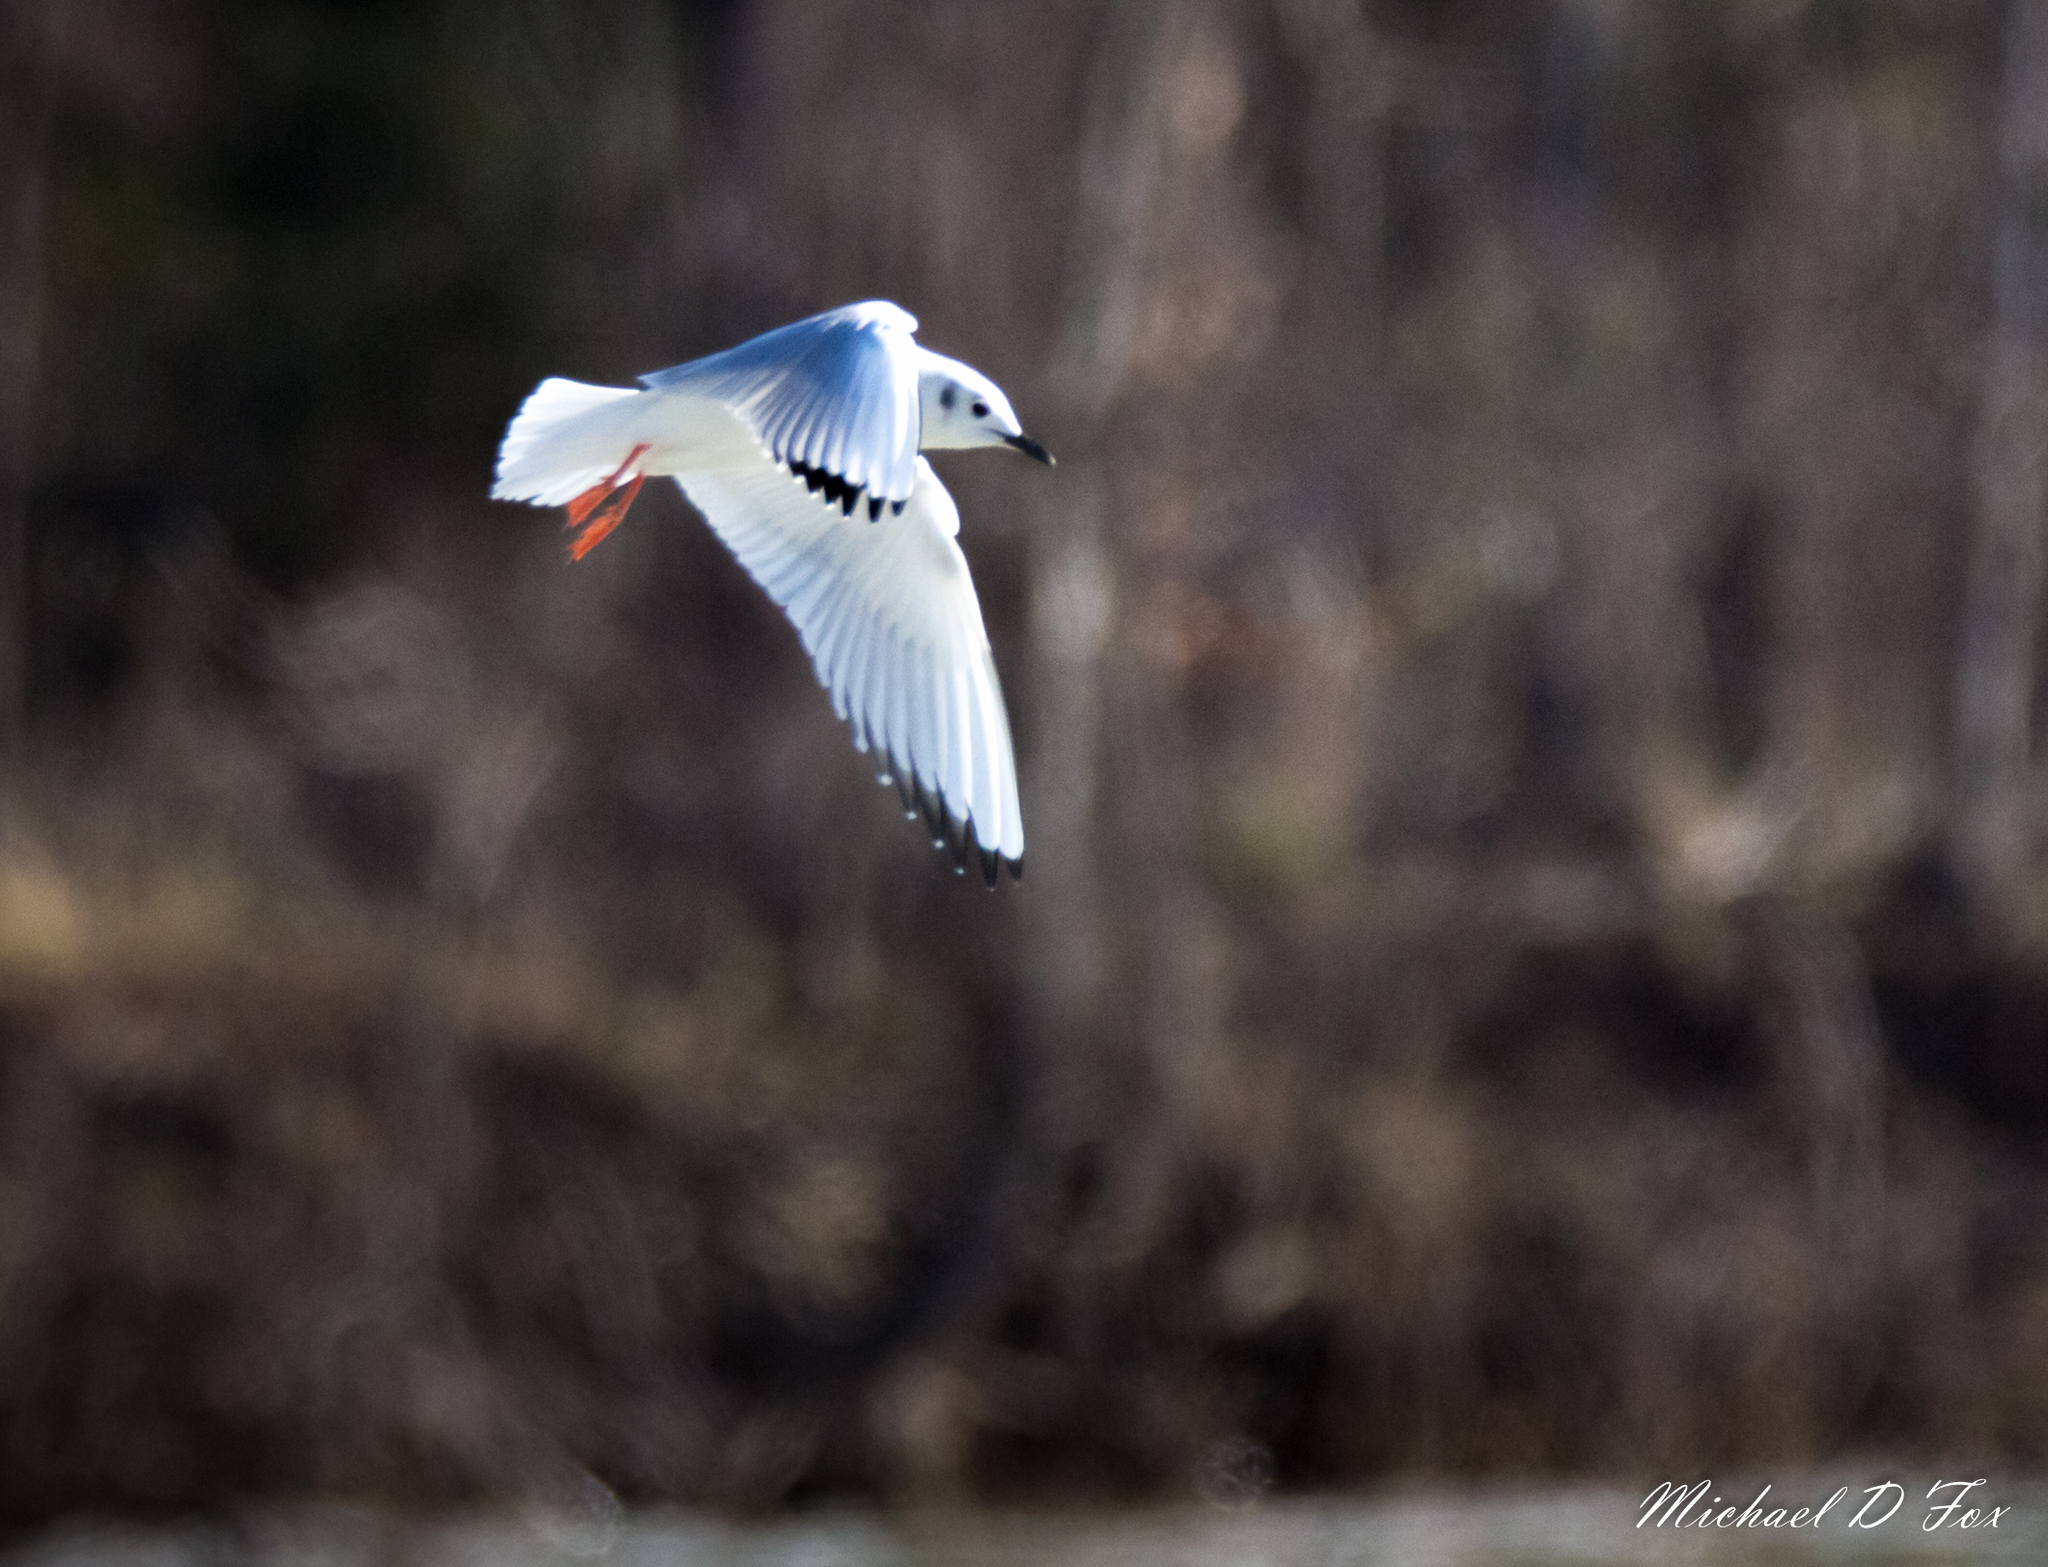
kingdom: Animalia
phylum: Chordata
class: Aves
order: Charadriiformes
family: Laridae
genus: Chroicocephalus
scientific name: Chroicocephalus philadelphia
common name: Bonaparte's gull
